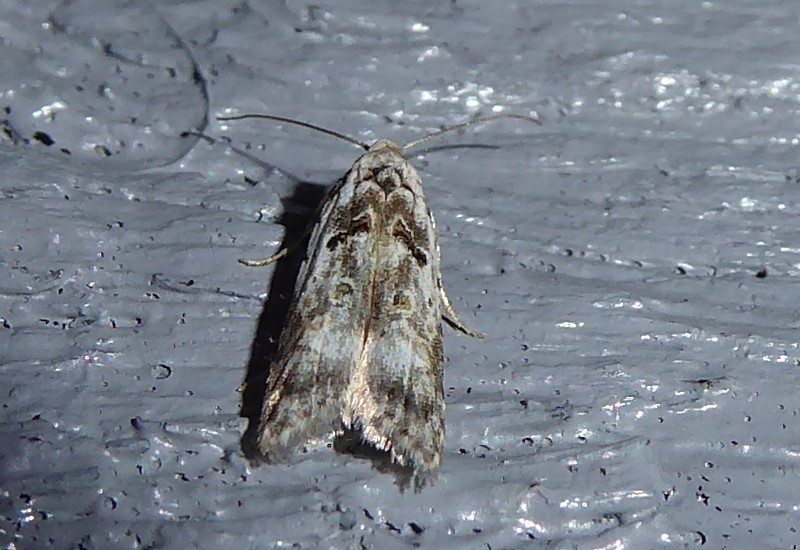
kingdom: Animalia
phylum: Arthropoda
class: Insecta
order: Lepidoptera
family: Carposinidae
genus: Carposina
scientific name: Carposina
